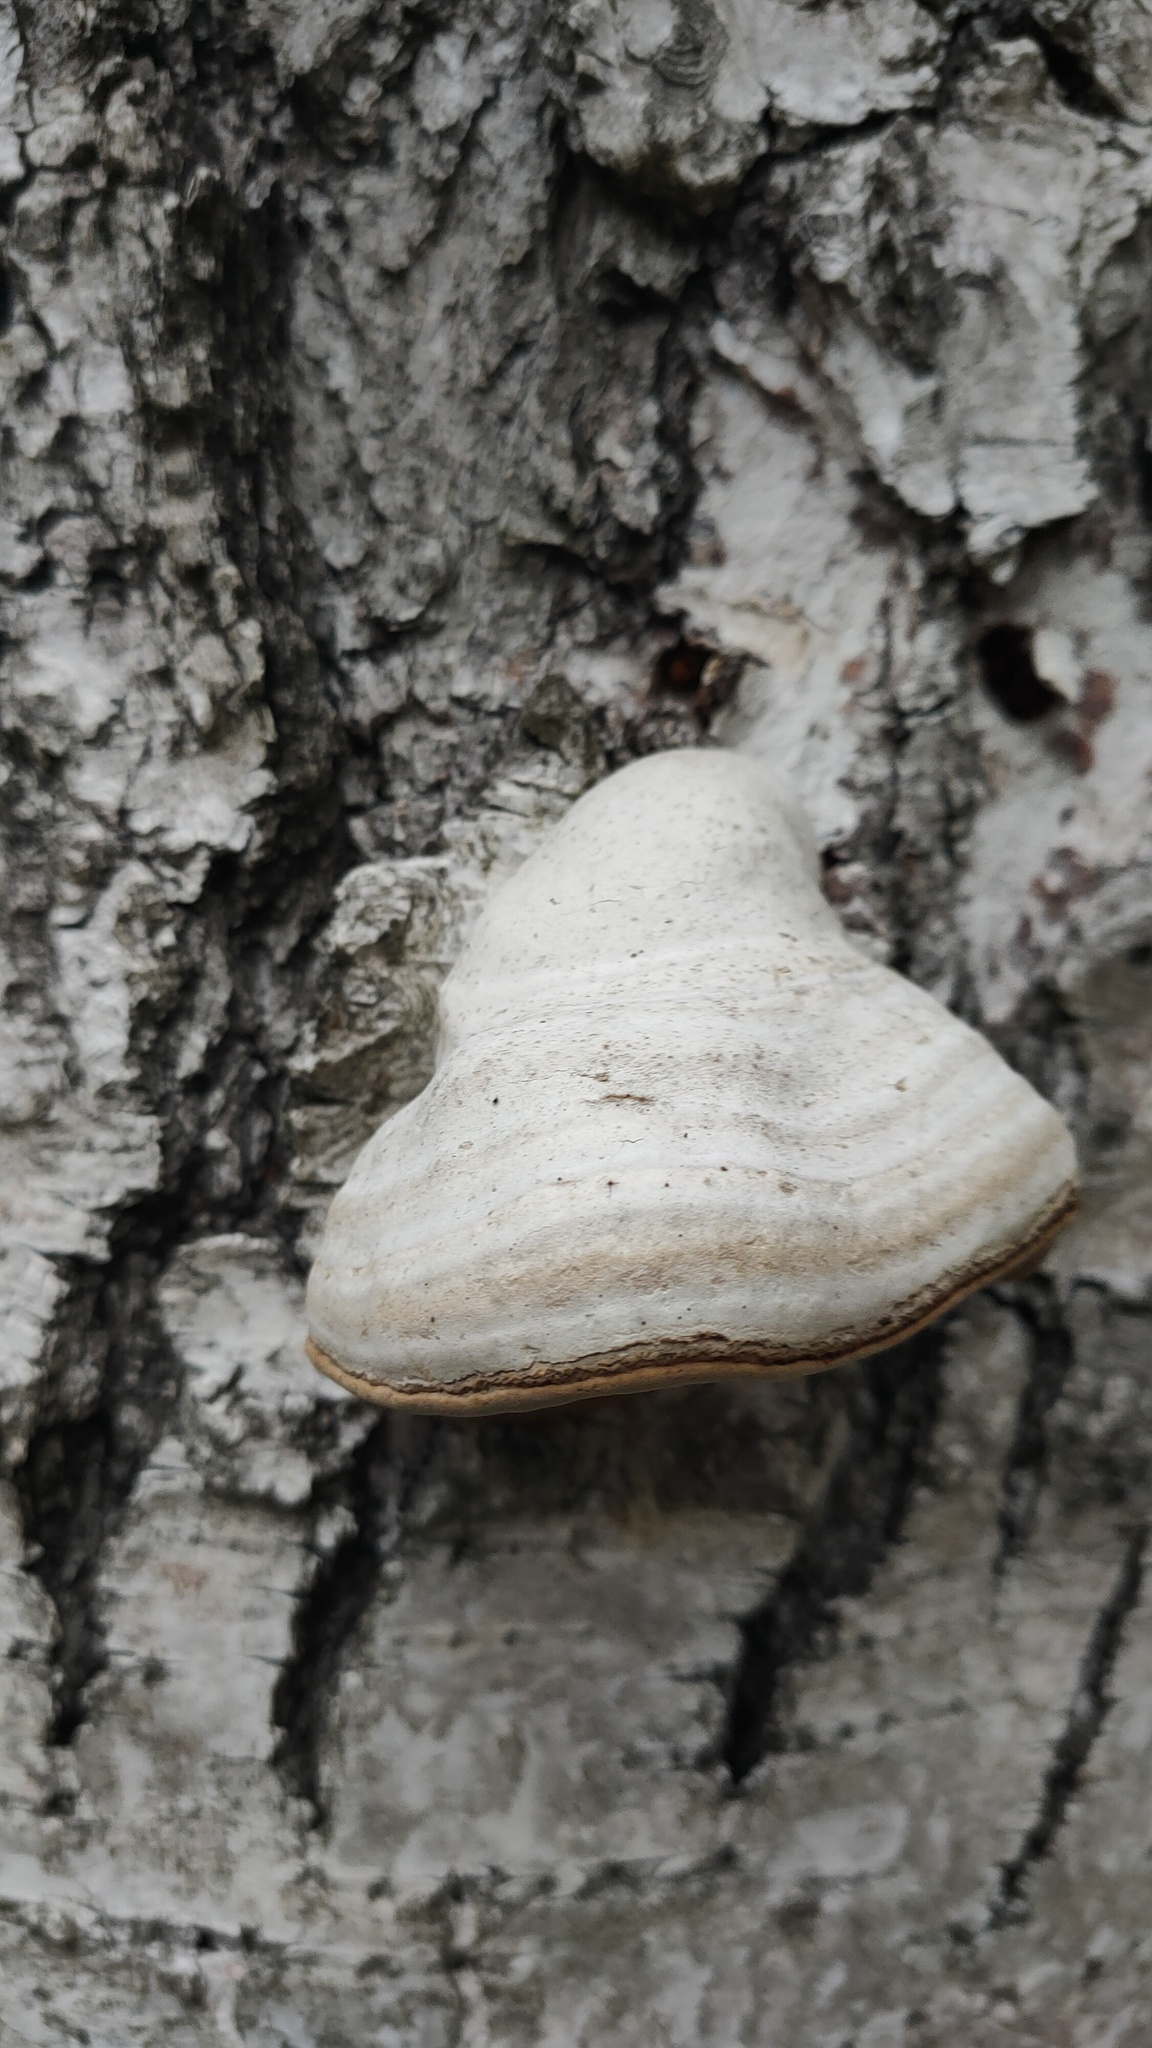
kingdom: Fungi
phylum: Basidiomycota
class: Agaricomycetes
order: Polyporales
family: Polyporaceae
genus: Fomes
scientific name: Fomes fomentarius
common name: Hoof fungus
